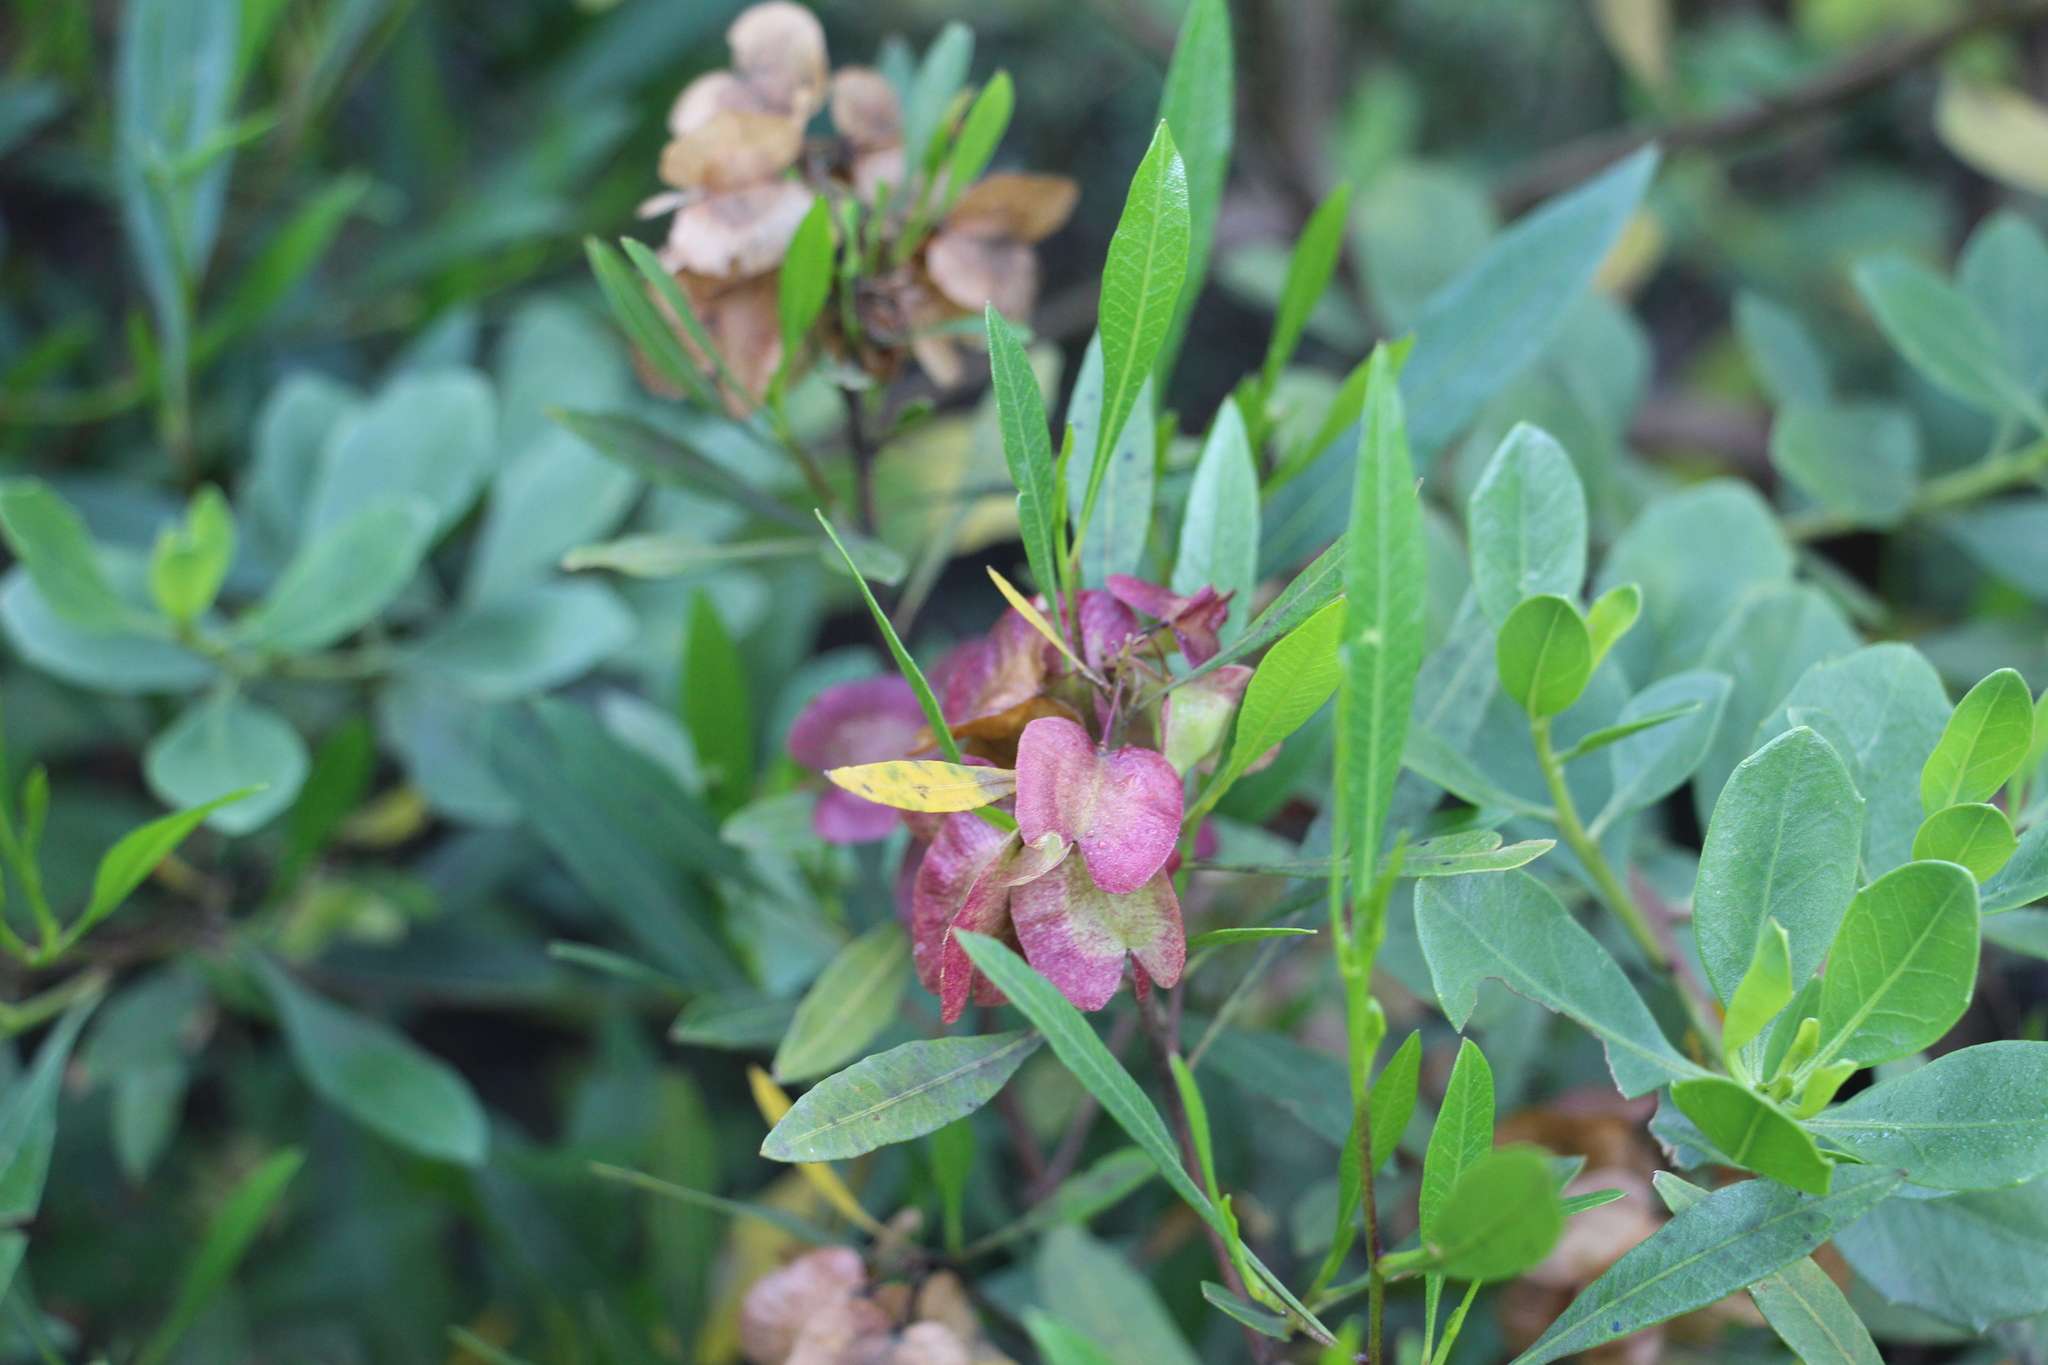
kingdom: Plantae
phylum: Tracheophyta
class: Magnoliopsida
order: Sapindales
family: Sapindaceae
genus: Dodonaea
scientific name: Dodonaea viscosa
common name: Hopbush
